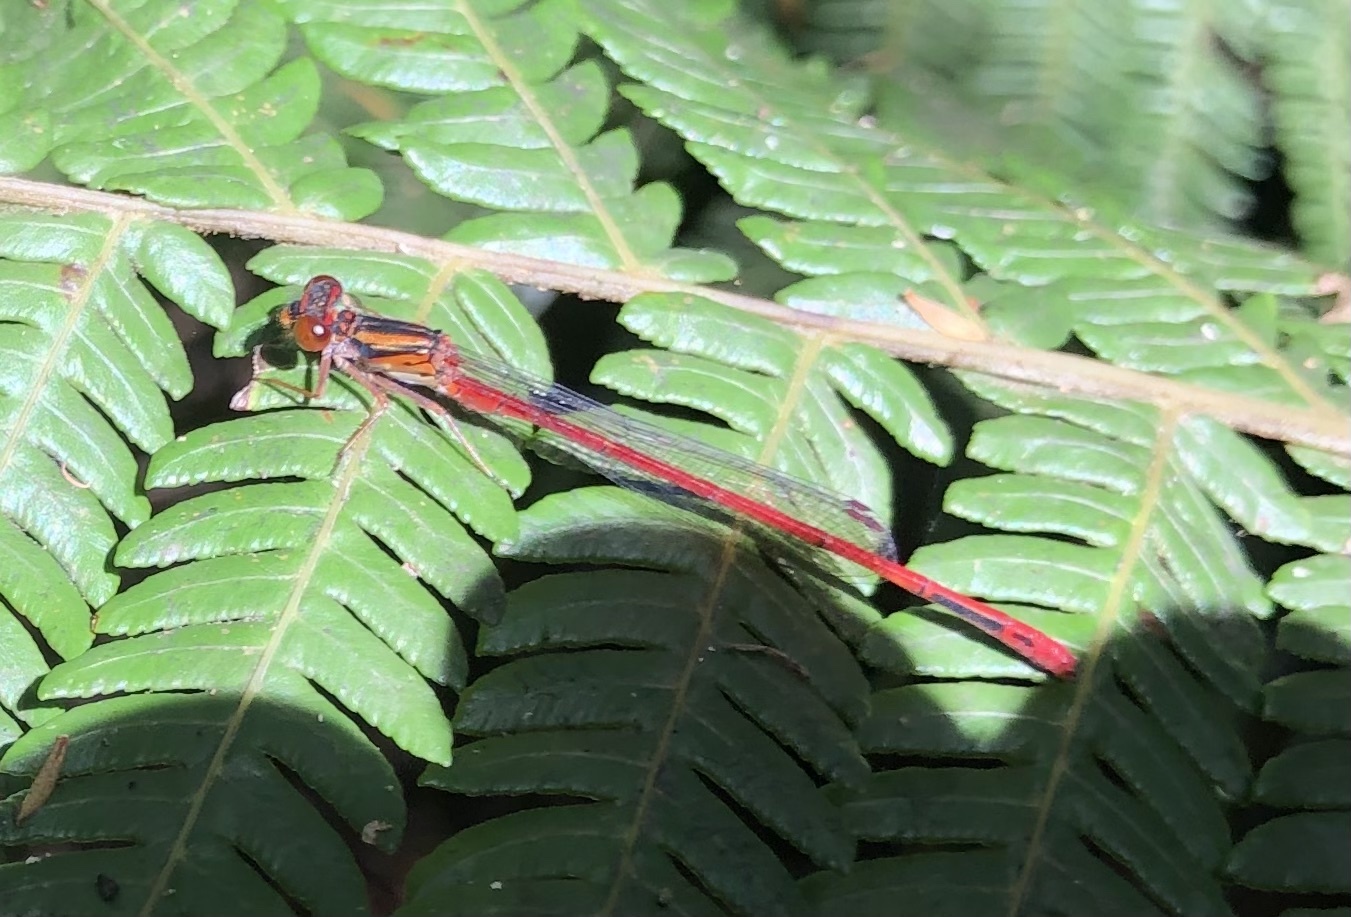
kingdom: Animalia
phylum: Arthropoda
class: Insecta
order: Odonata
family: Coenagrionidae
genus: Xanthocnemis
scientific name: Xanthocnemis zealandica
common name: Common redcoat damselfly
